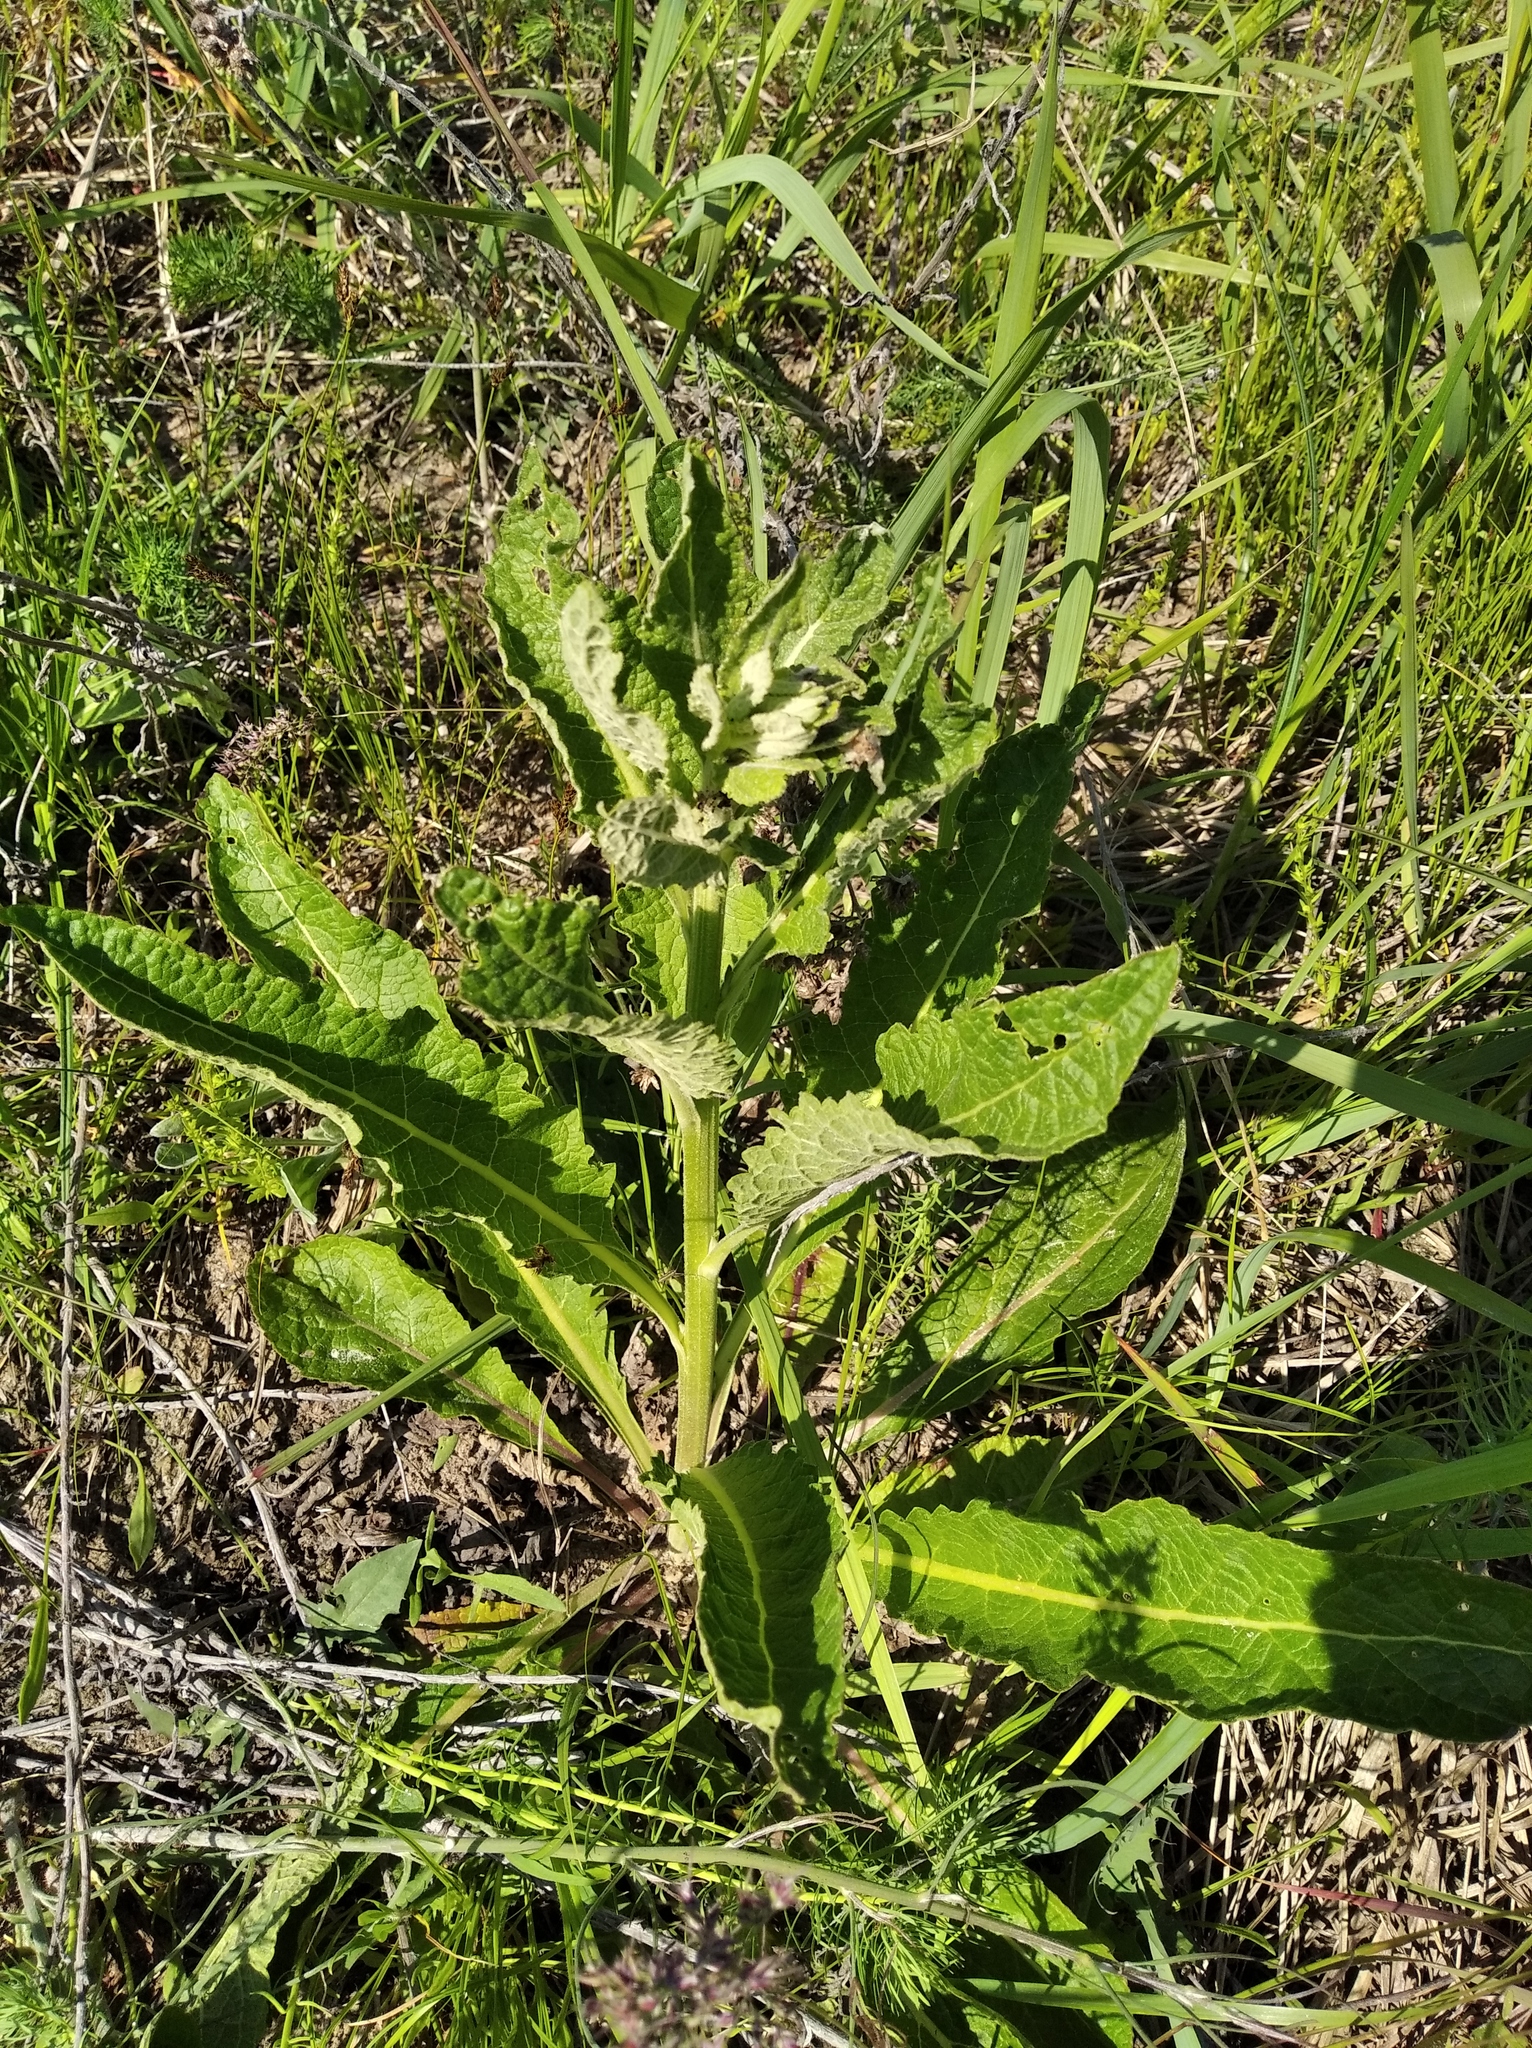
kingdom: Plantae
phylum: Tracheophyta
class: Magnoliopsida
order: Lamiales
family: Scrophulariaceae
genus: Verbascum
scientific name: Verbascum lychnitis
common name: White mullein
